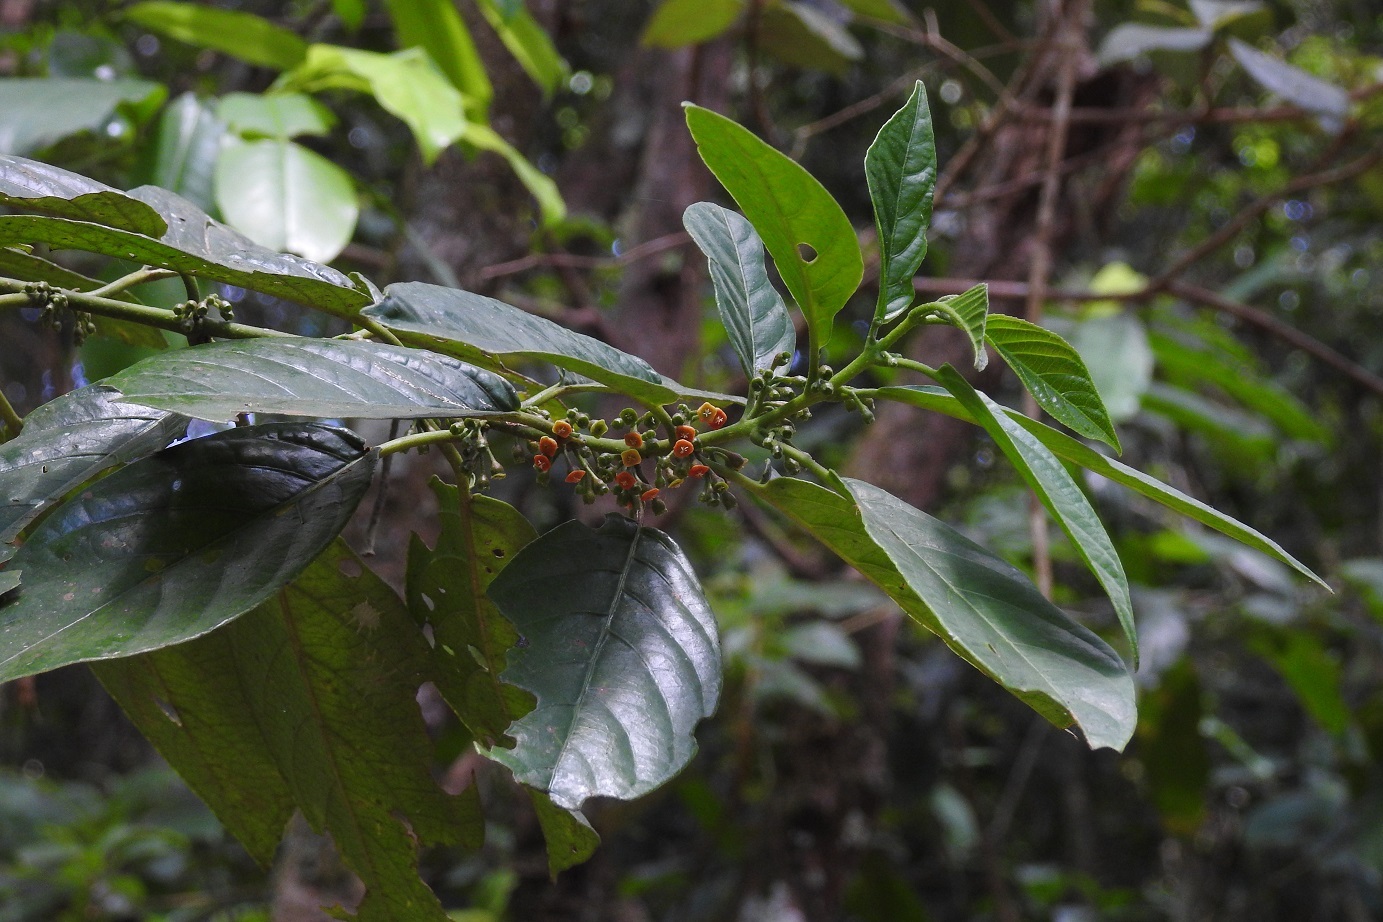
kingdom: Plantae
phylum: Tracheophyta
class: Magnoliopsida
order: Laurales
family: Siparunaceae
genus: Siparuna
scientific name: Siparuna thecaphora
